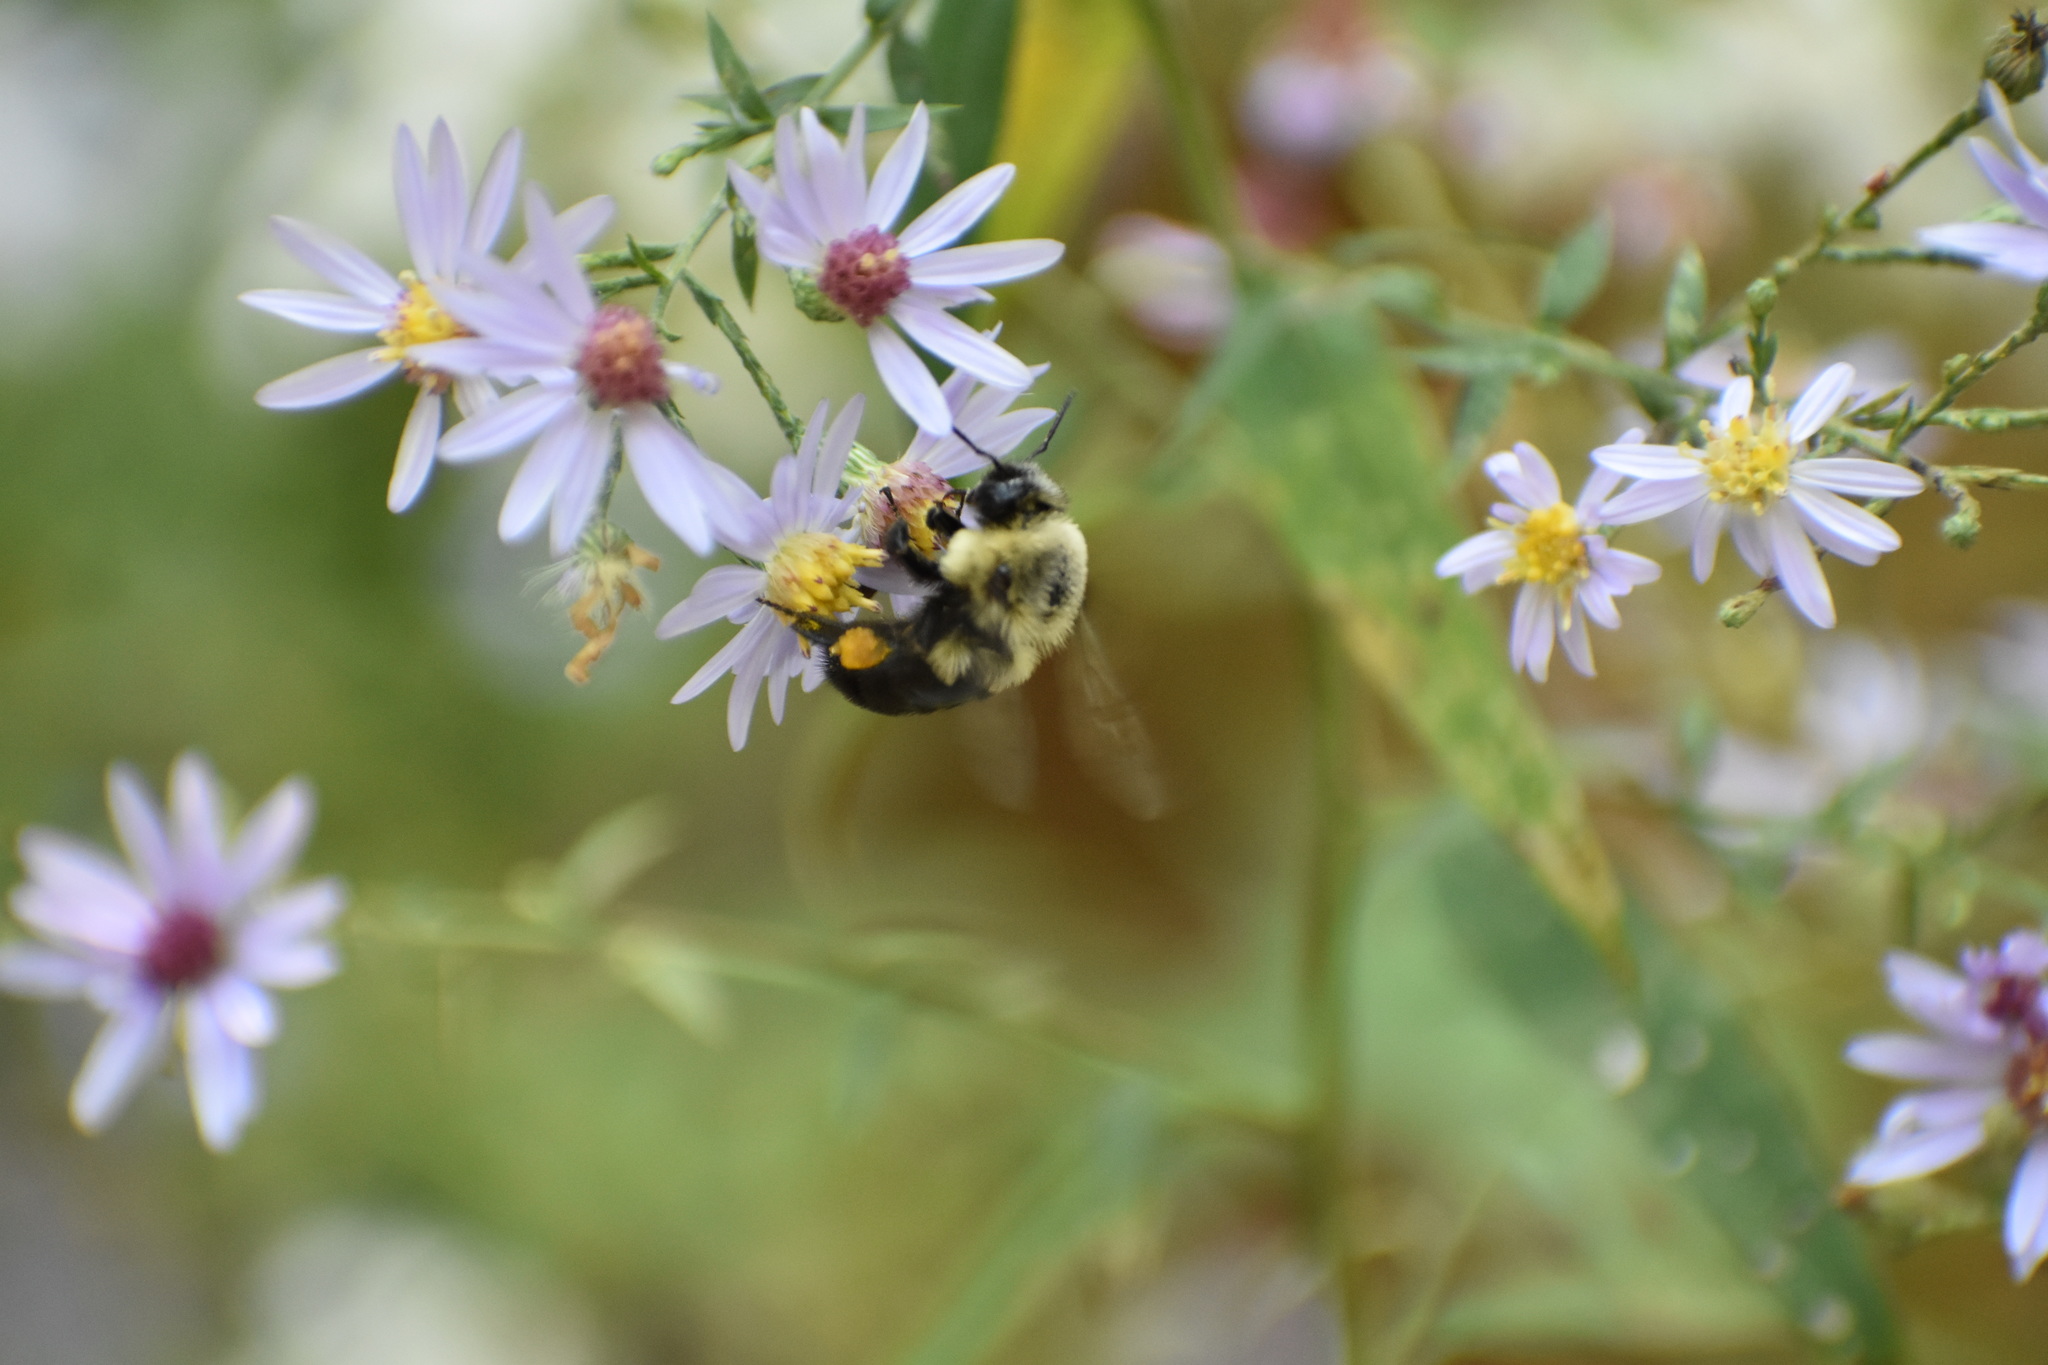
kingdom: Animalia
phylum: Arthropoda
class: Insecta
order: Hymenoptera
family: Apidae
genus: Bombus
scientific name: Bombus impatiens
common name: Common eastern bumble bee
